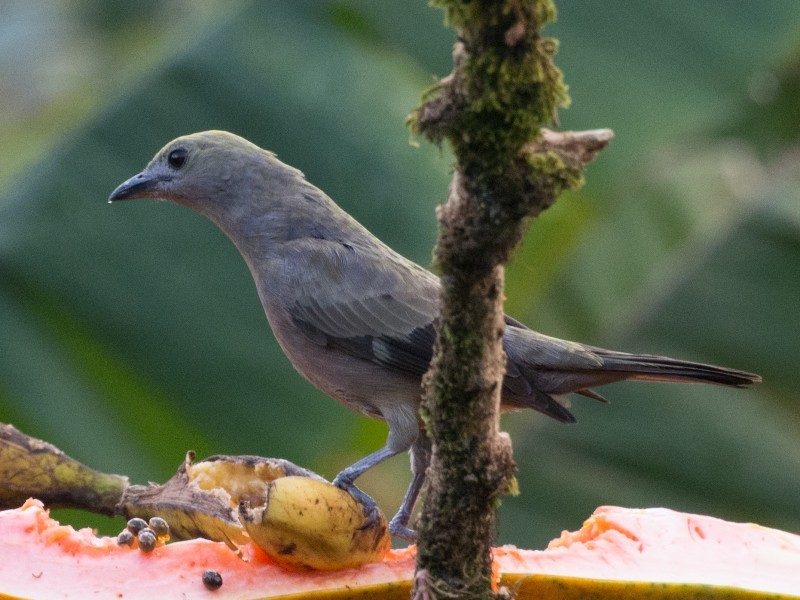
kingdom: Animalia
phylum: Chordata
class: Aves
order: Passeriformes
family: Thraupidae
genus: Thraupis
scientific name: Thraupis palmarum
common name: Palm tanager
